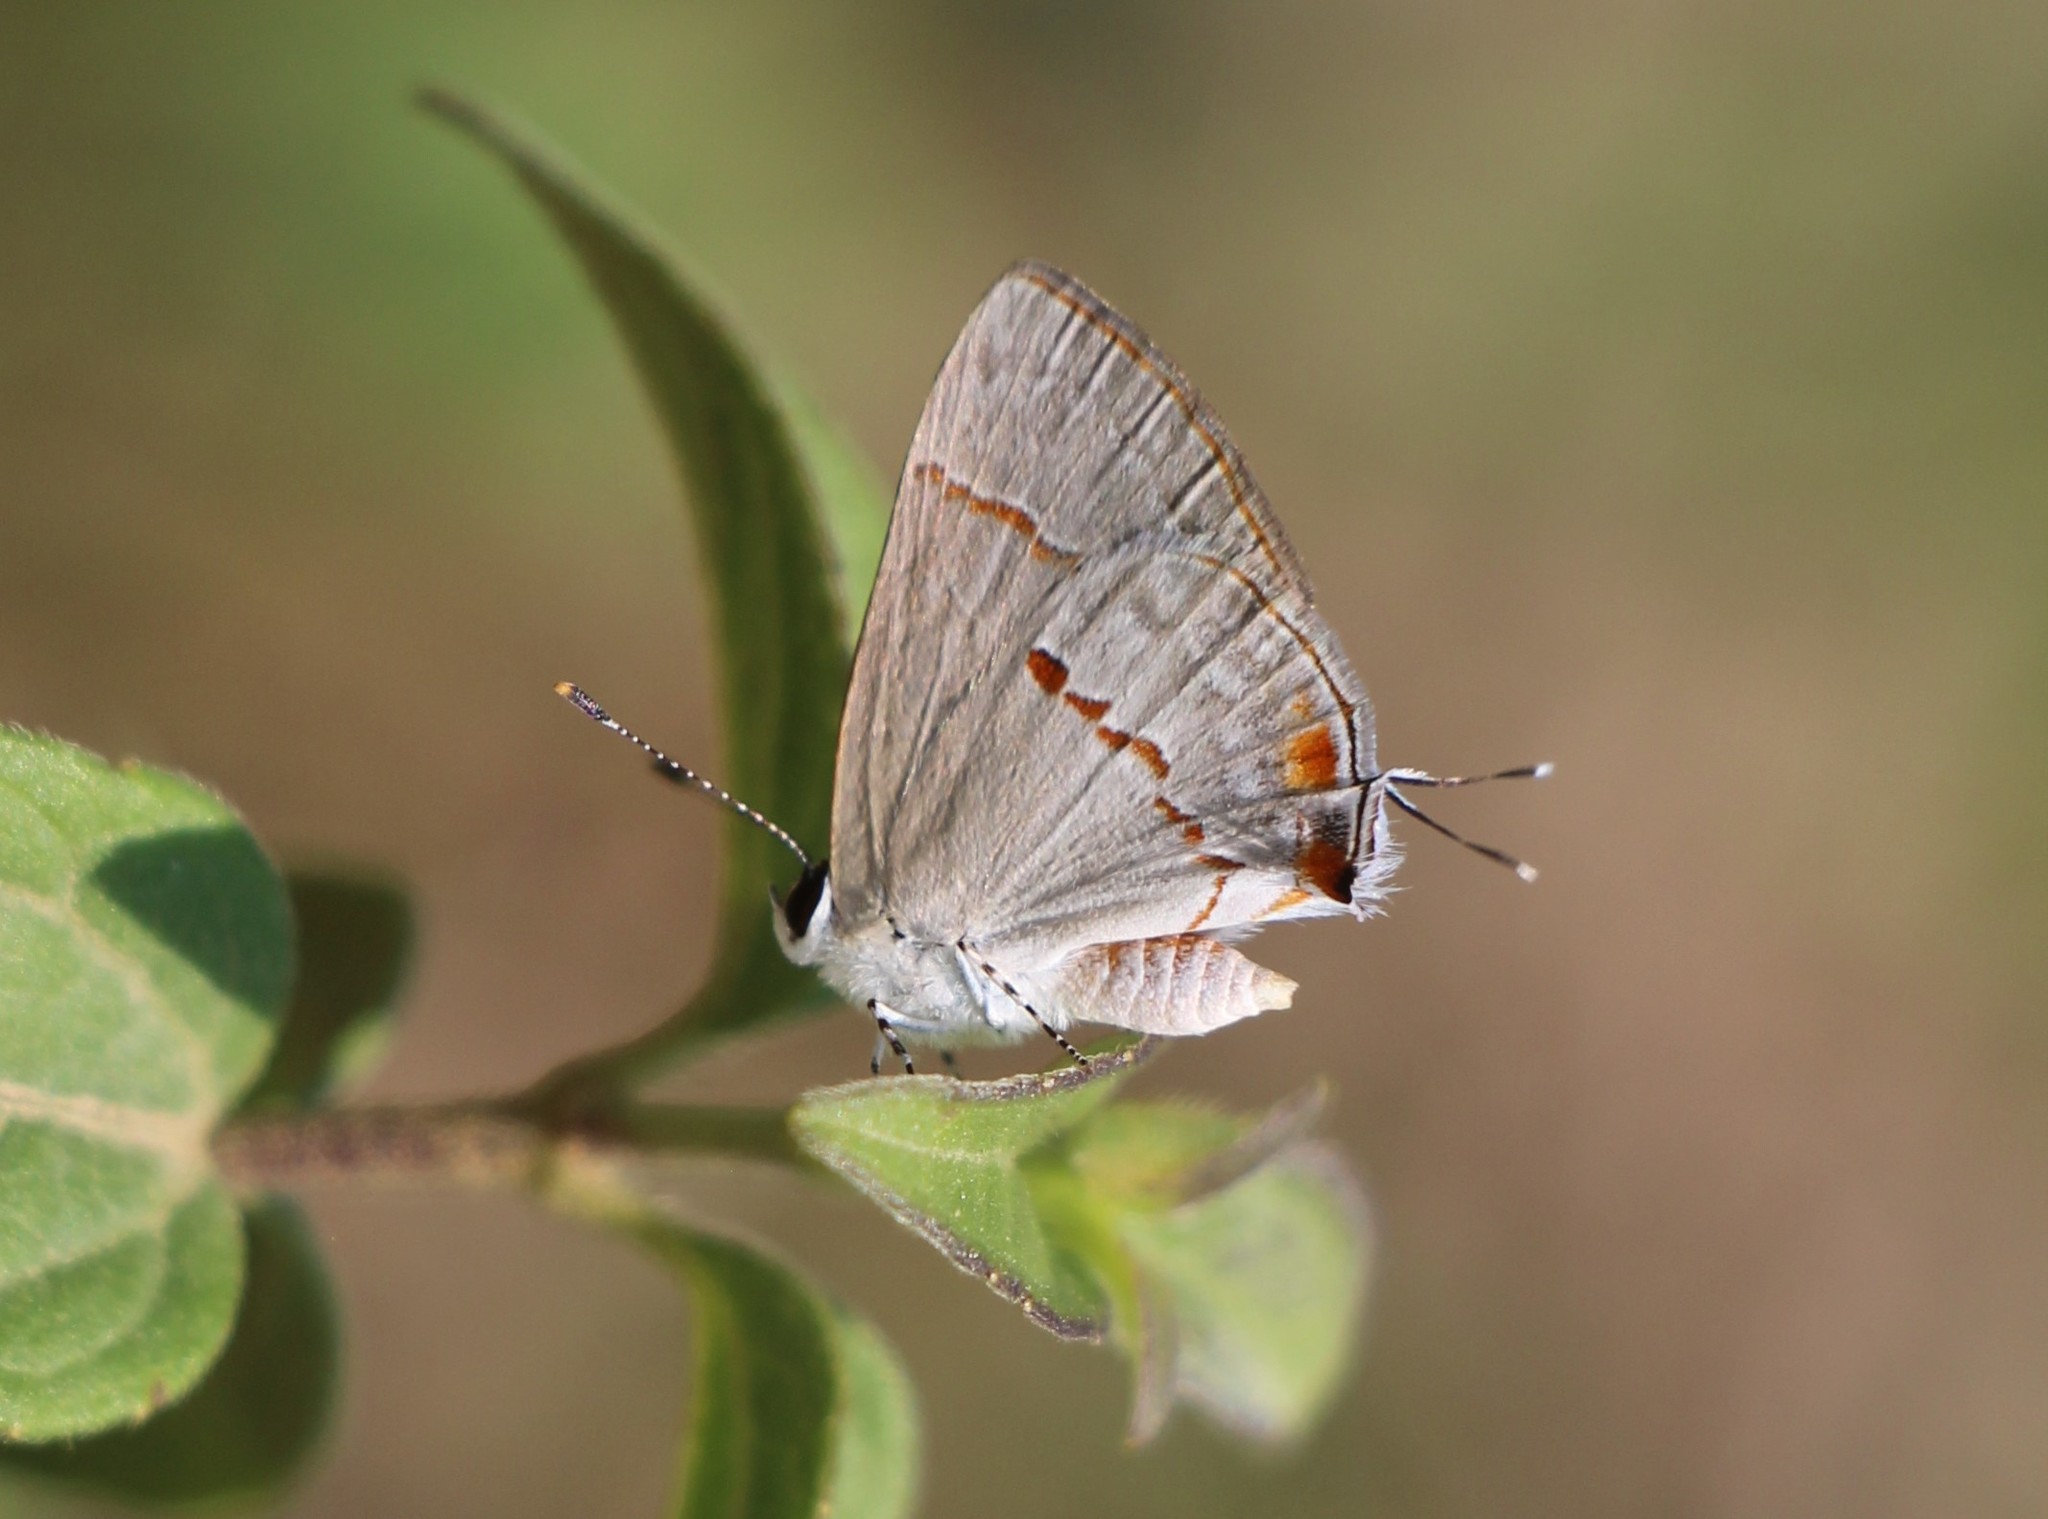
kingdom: Animalia
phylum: Arthropoda
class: Insecta
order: Lepidoptera
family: Lycaenidae
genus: Thecla
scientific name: Thecla azia
